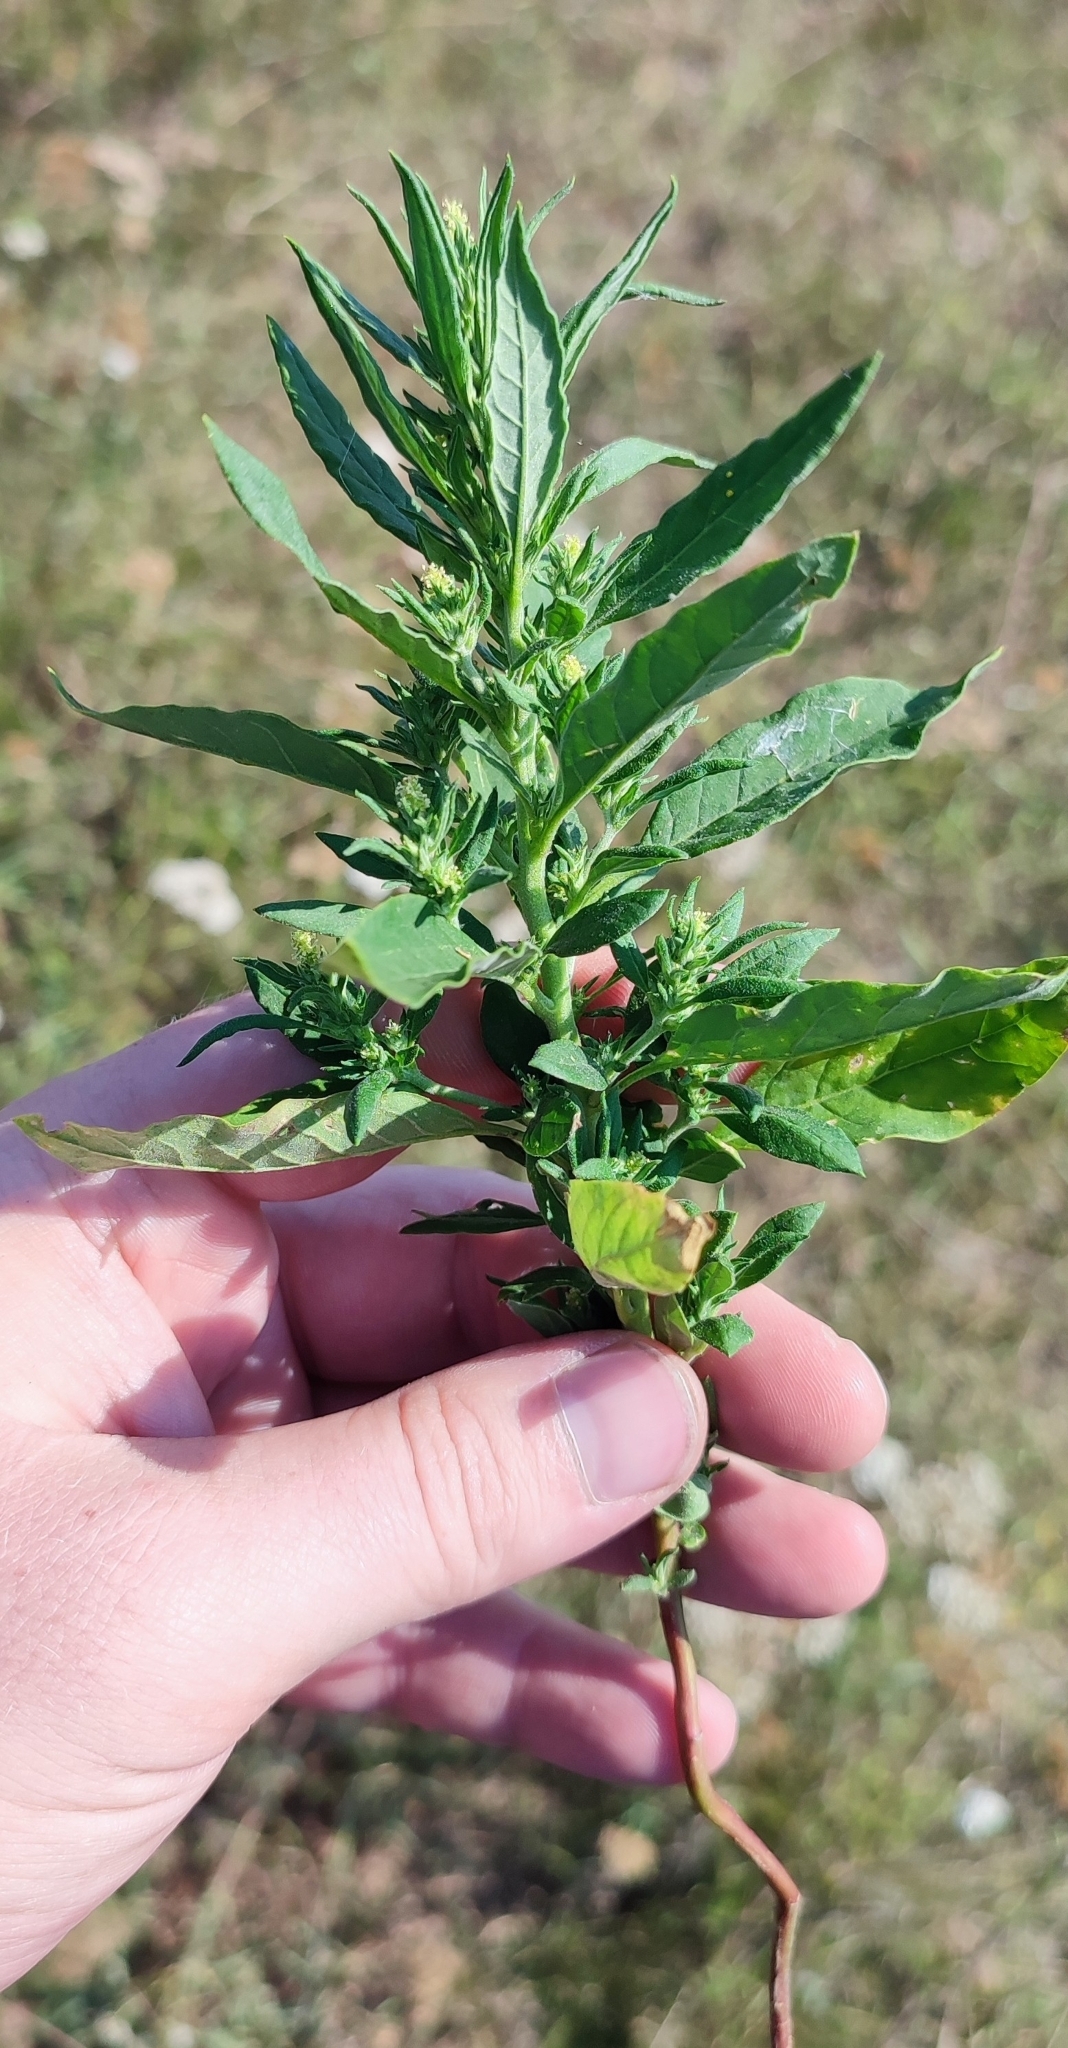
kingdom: Plantae
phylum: Tracheophyta
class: Magnoliopsida
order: Caryophyllales
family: Amaranthaceae
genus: Axyris
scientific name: Axyris amaranthoides
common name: Russian pigweed
